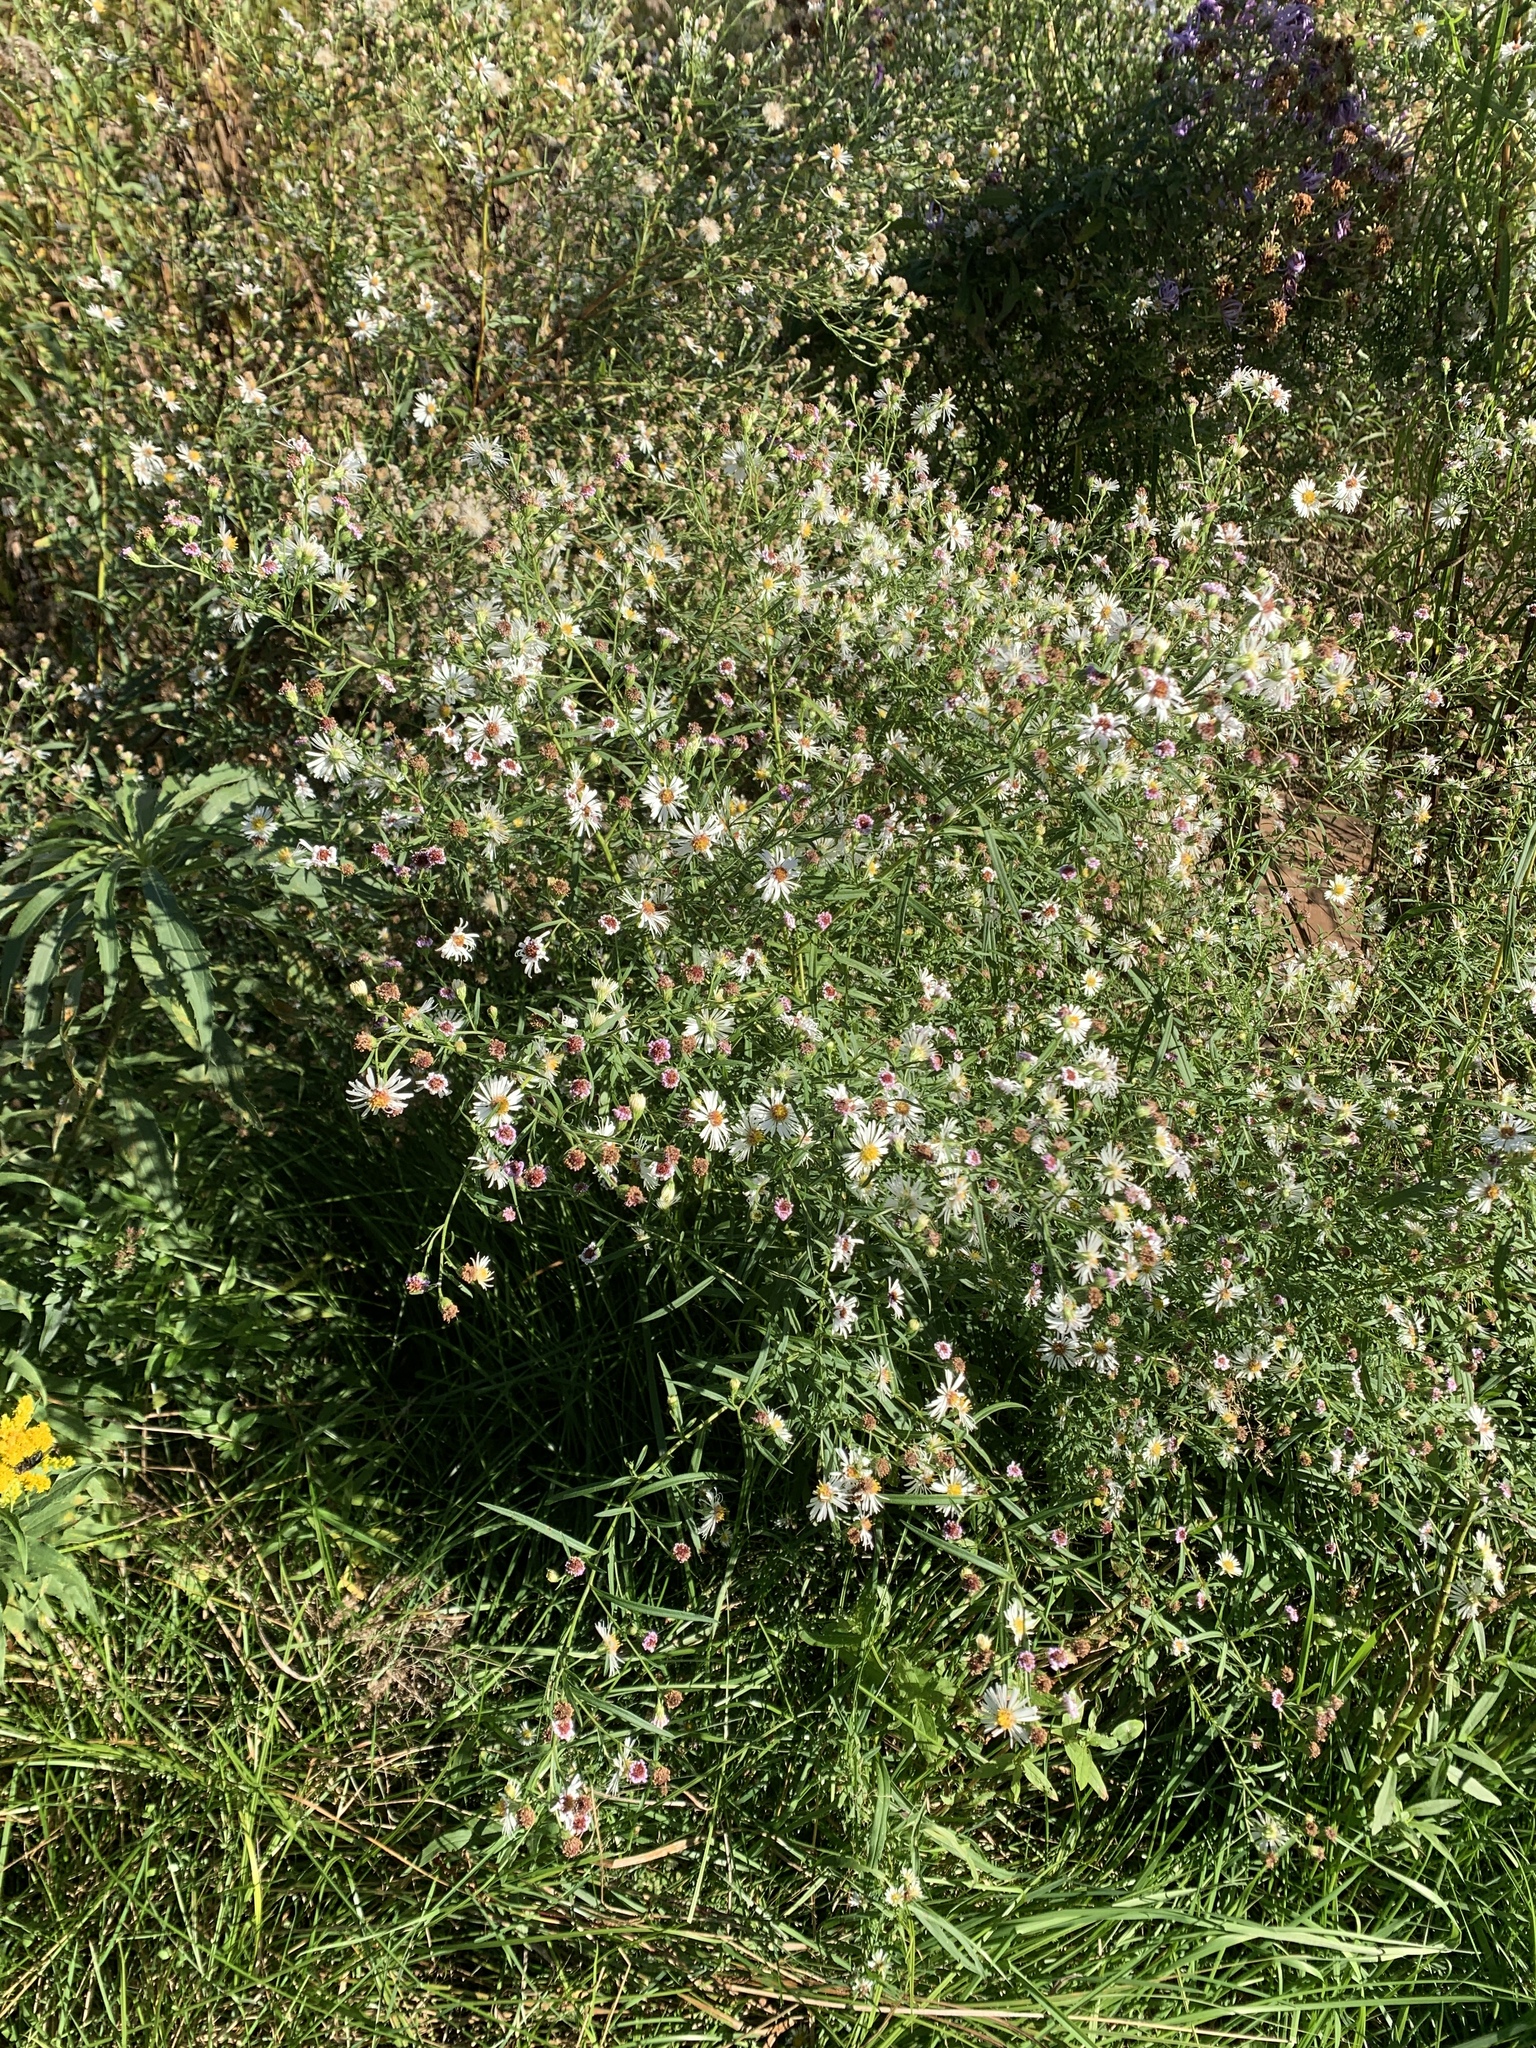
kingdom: Plantae
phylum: Tracheophyta
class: Magnoliopsida
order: Asterales
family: Asteraceae
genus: Symphyotrichum
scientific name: Symphyotrichum lanceolatum
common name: Panicled aster
